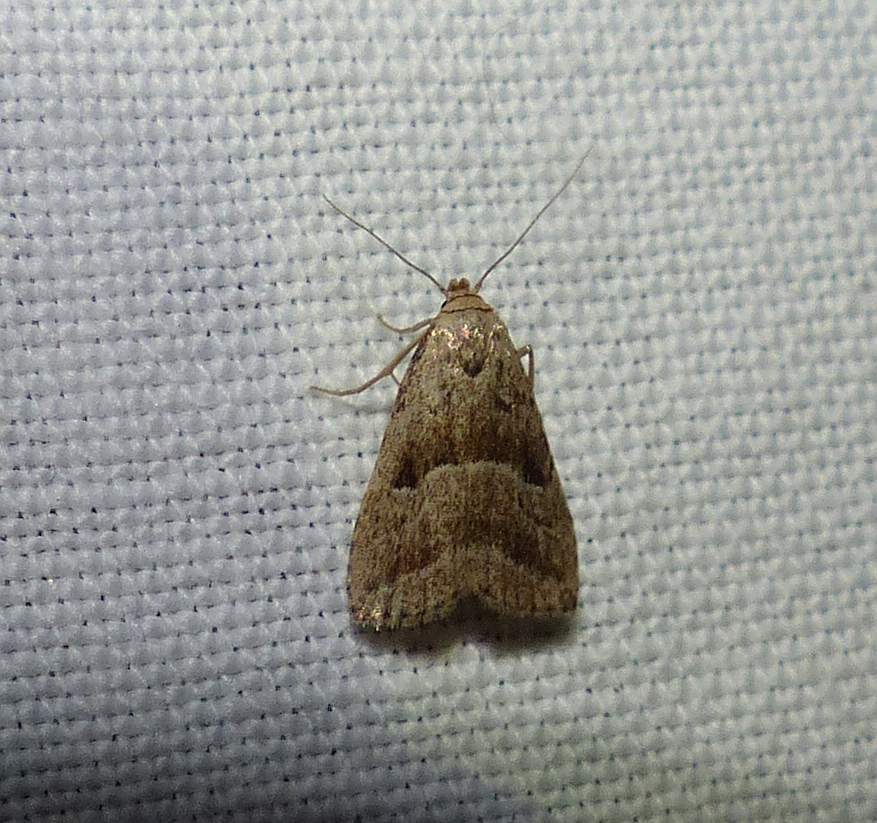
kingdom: Animalia
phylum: Arthropoda
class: Insecta
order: Lepidoptera
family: Erebidae
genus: Hypenodes
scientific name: Hypenodes caducus
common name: Large hypenodes moth
